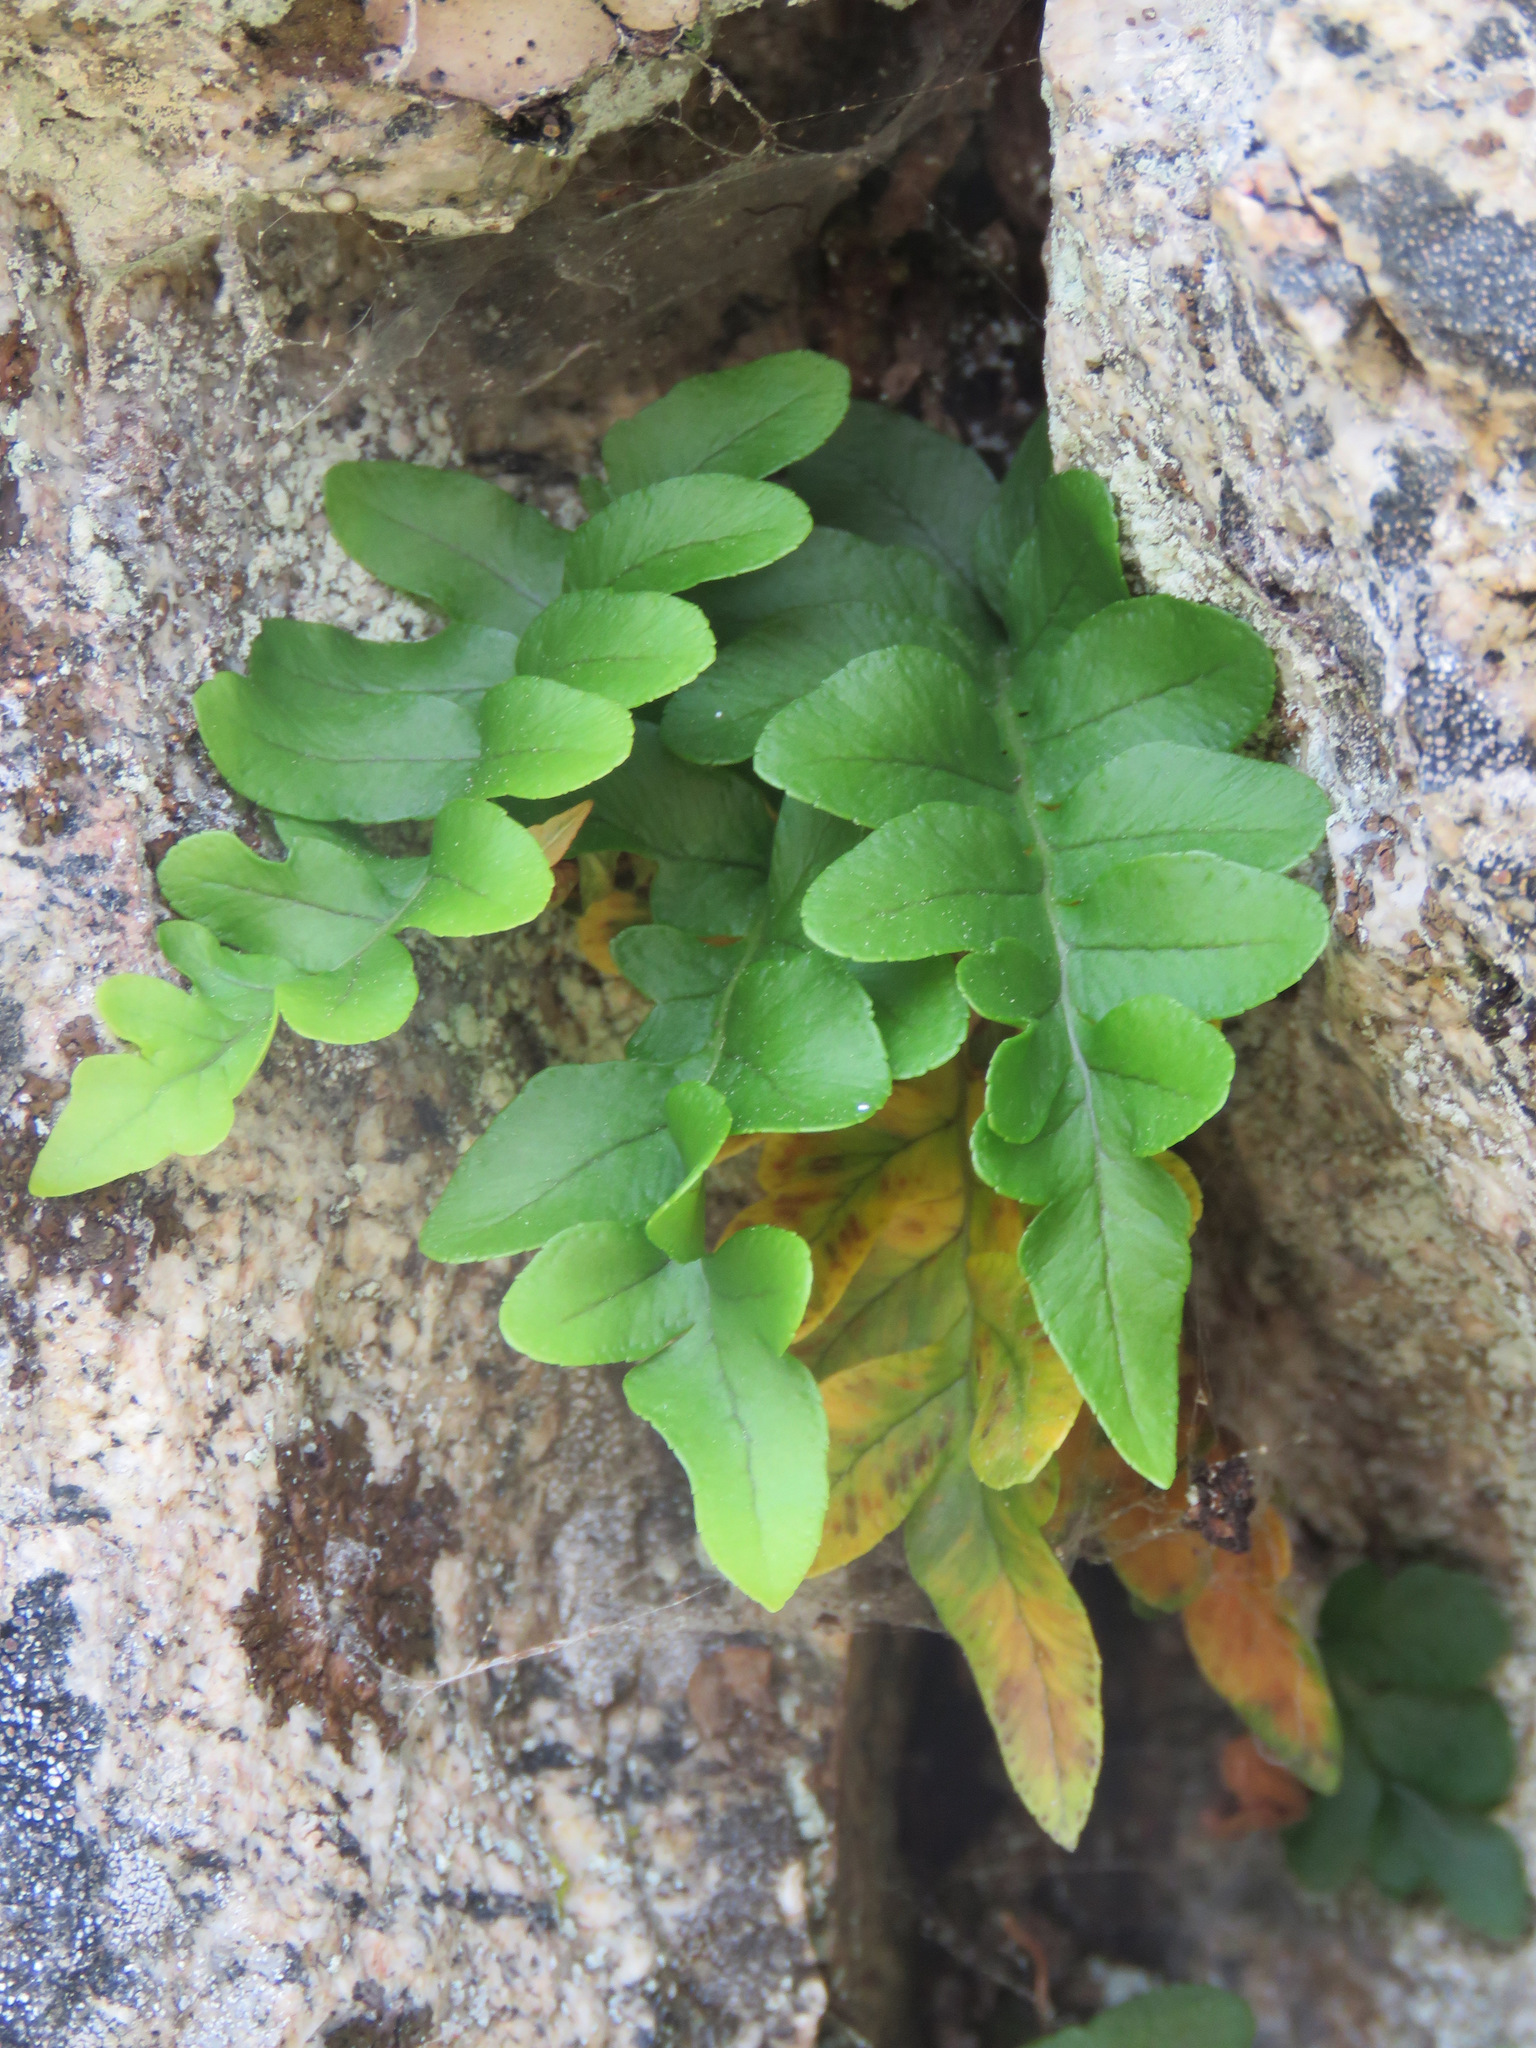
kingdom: Plantae
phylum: Tracheophyta
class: Polypodiopsida
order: Polypodiales
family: Polypodiaceae
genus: Polypodium
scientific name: Polypodium hesperium
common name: Western polypody
